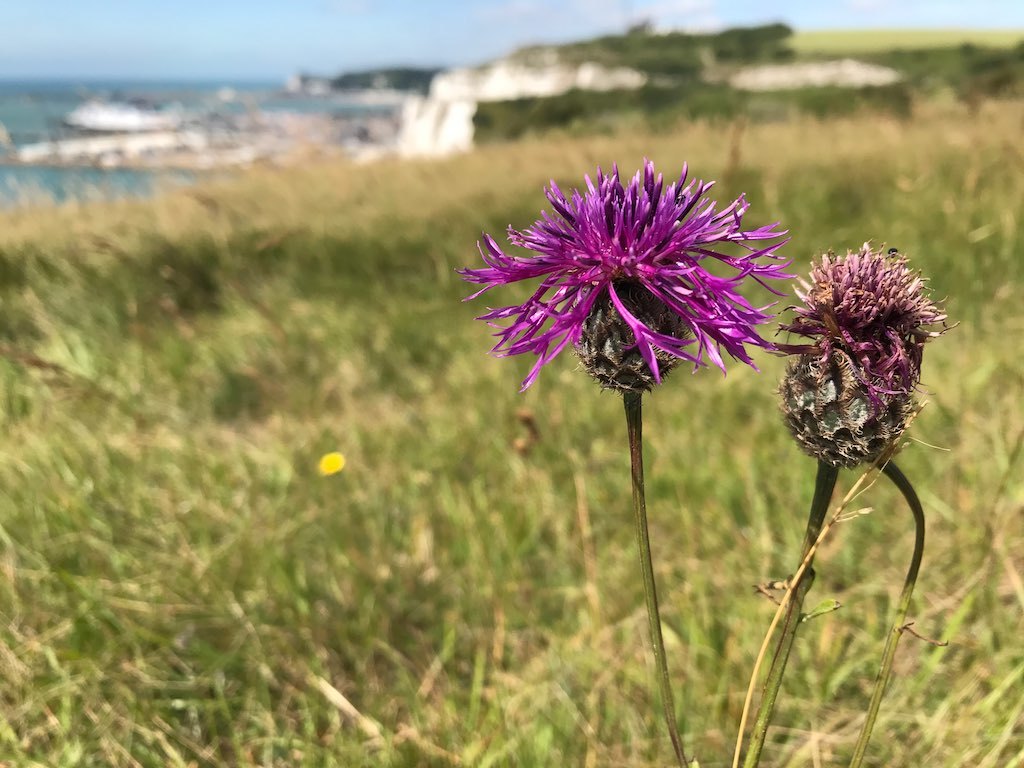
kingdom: Plantae
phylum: Tracheophyta
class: Magnoliopsida
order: Asterales
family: Asteraceae
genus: Centaurea
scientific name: Centaurea scabiosa
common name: Greater knapweed
